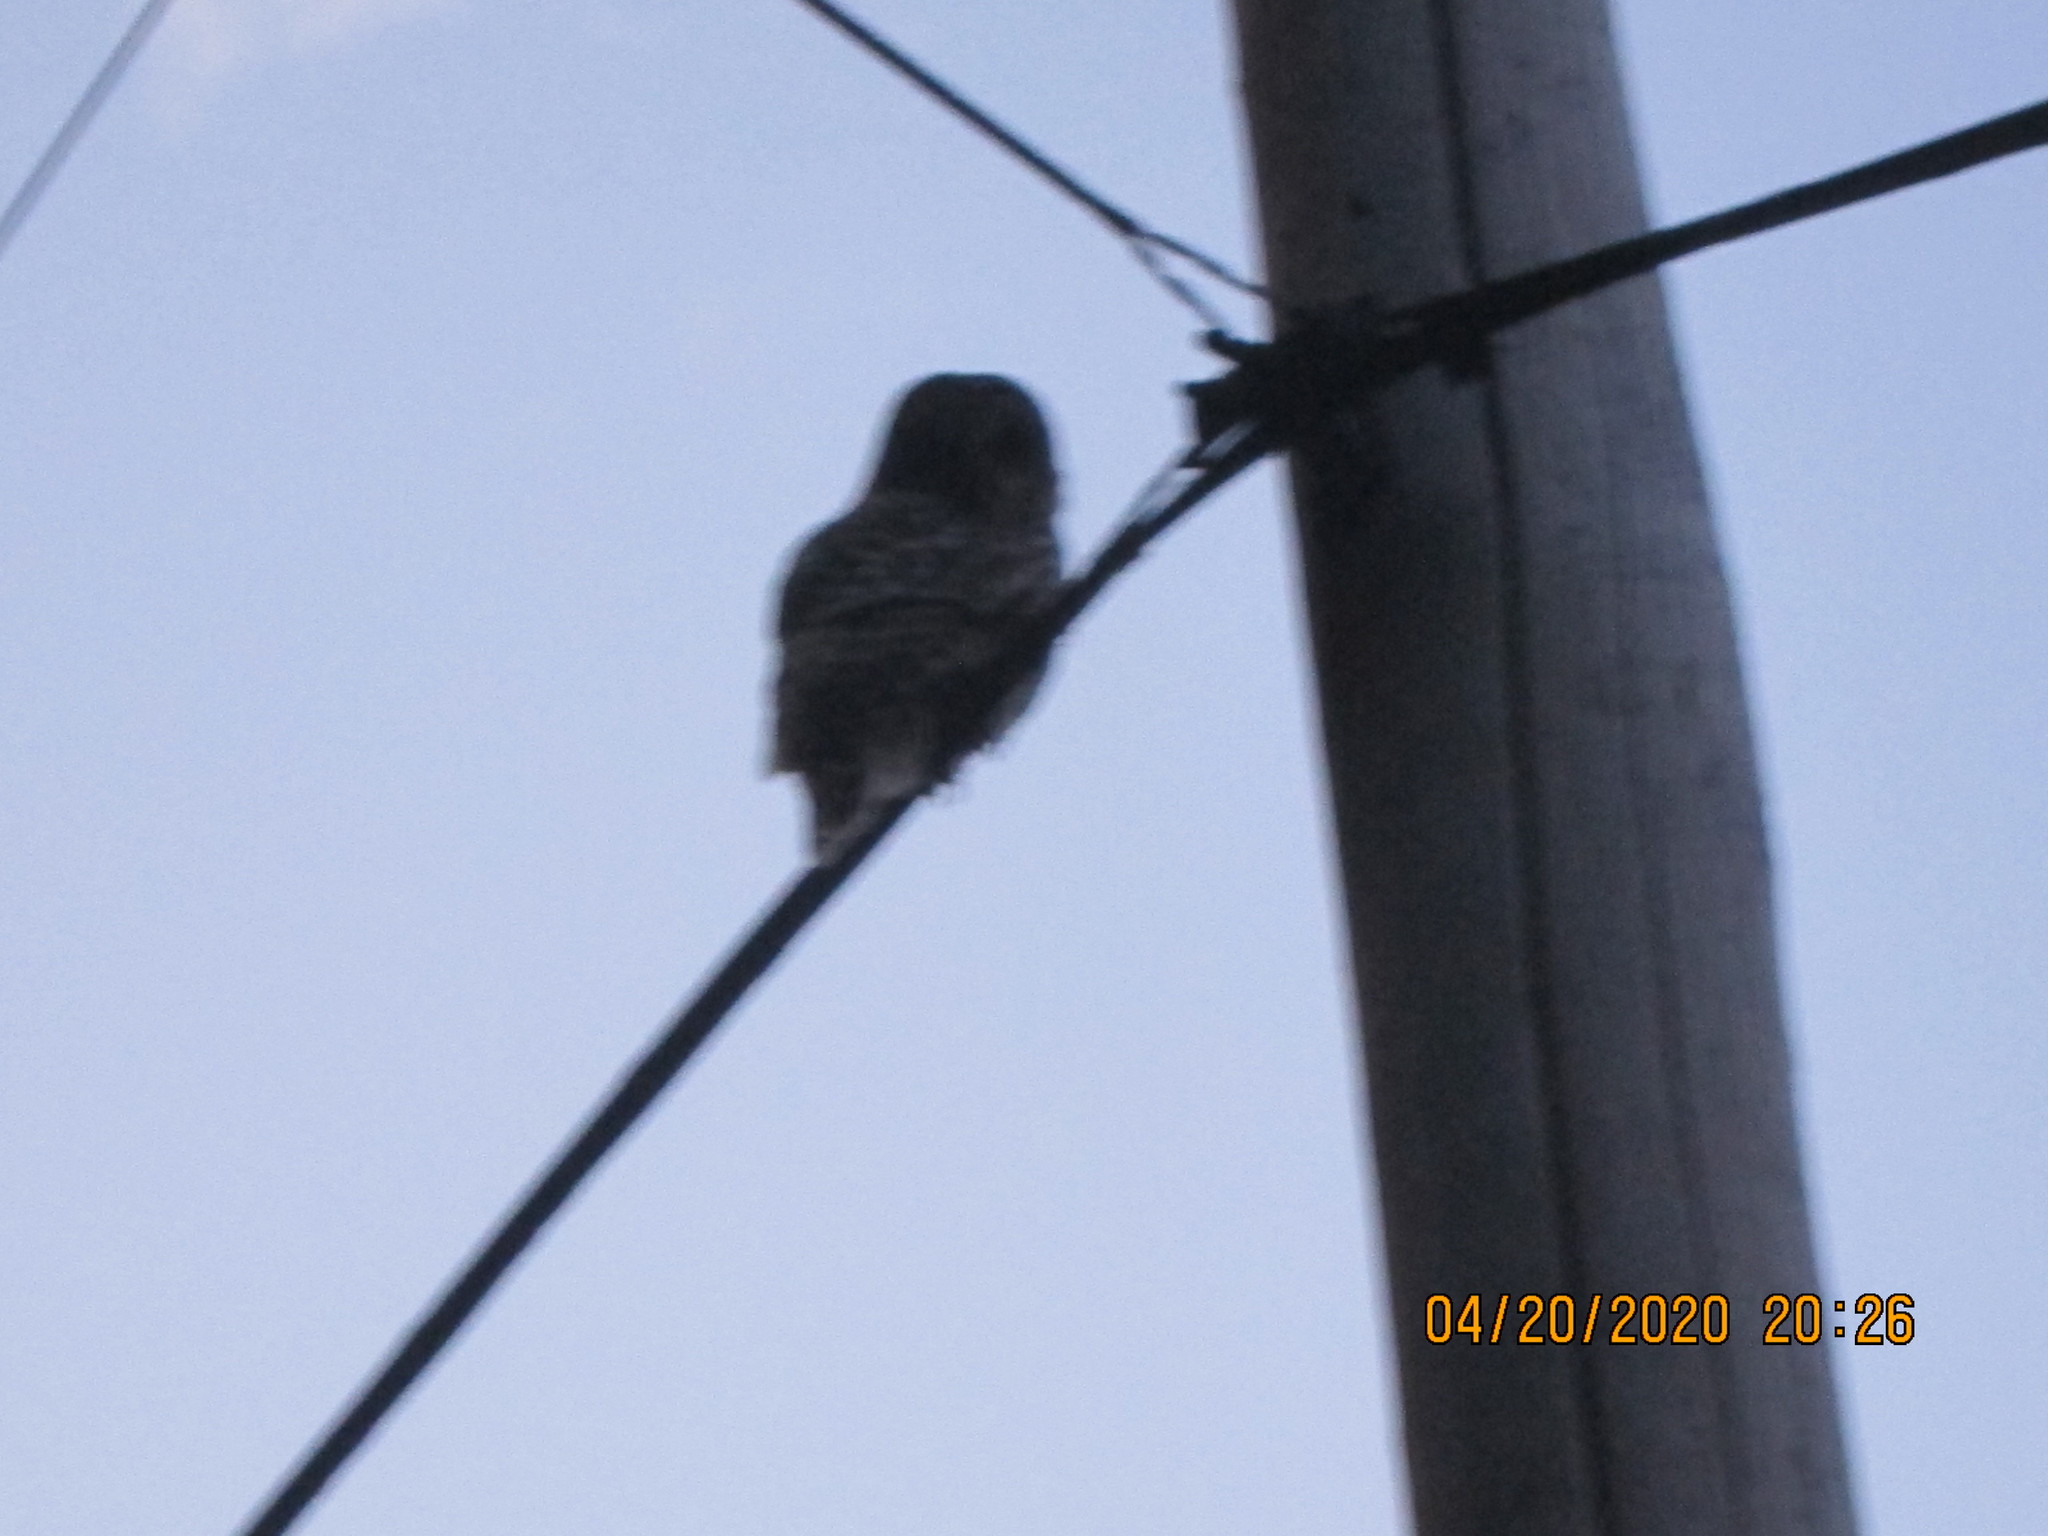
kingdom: Animalia
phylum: Chordata
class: Aves
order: Strigiformes
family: Strigidae
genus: Strix
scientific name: Strix varia
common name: Barred owl
